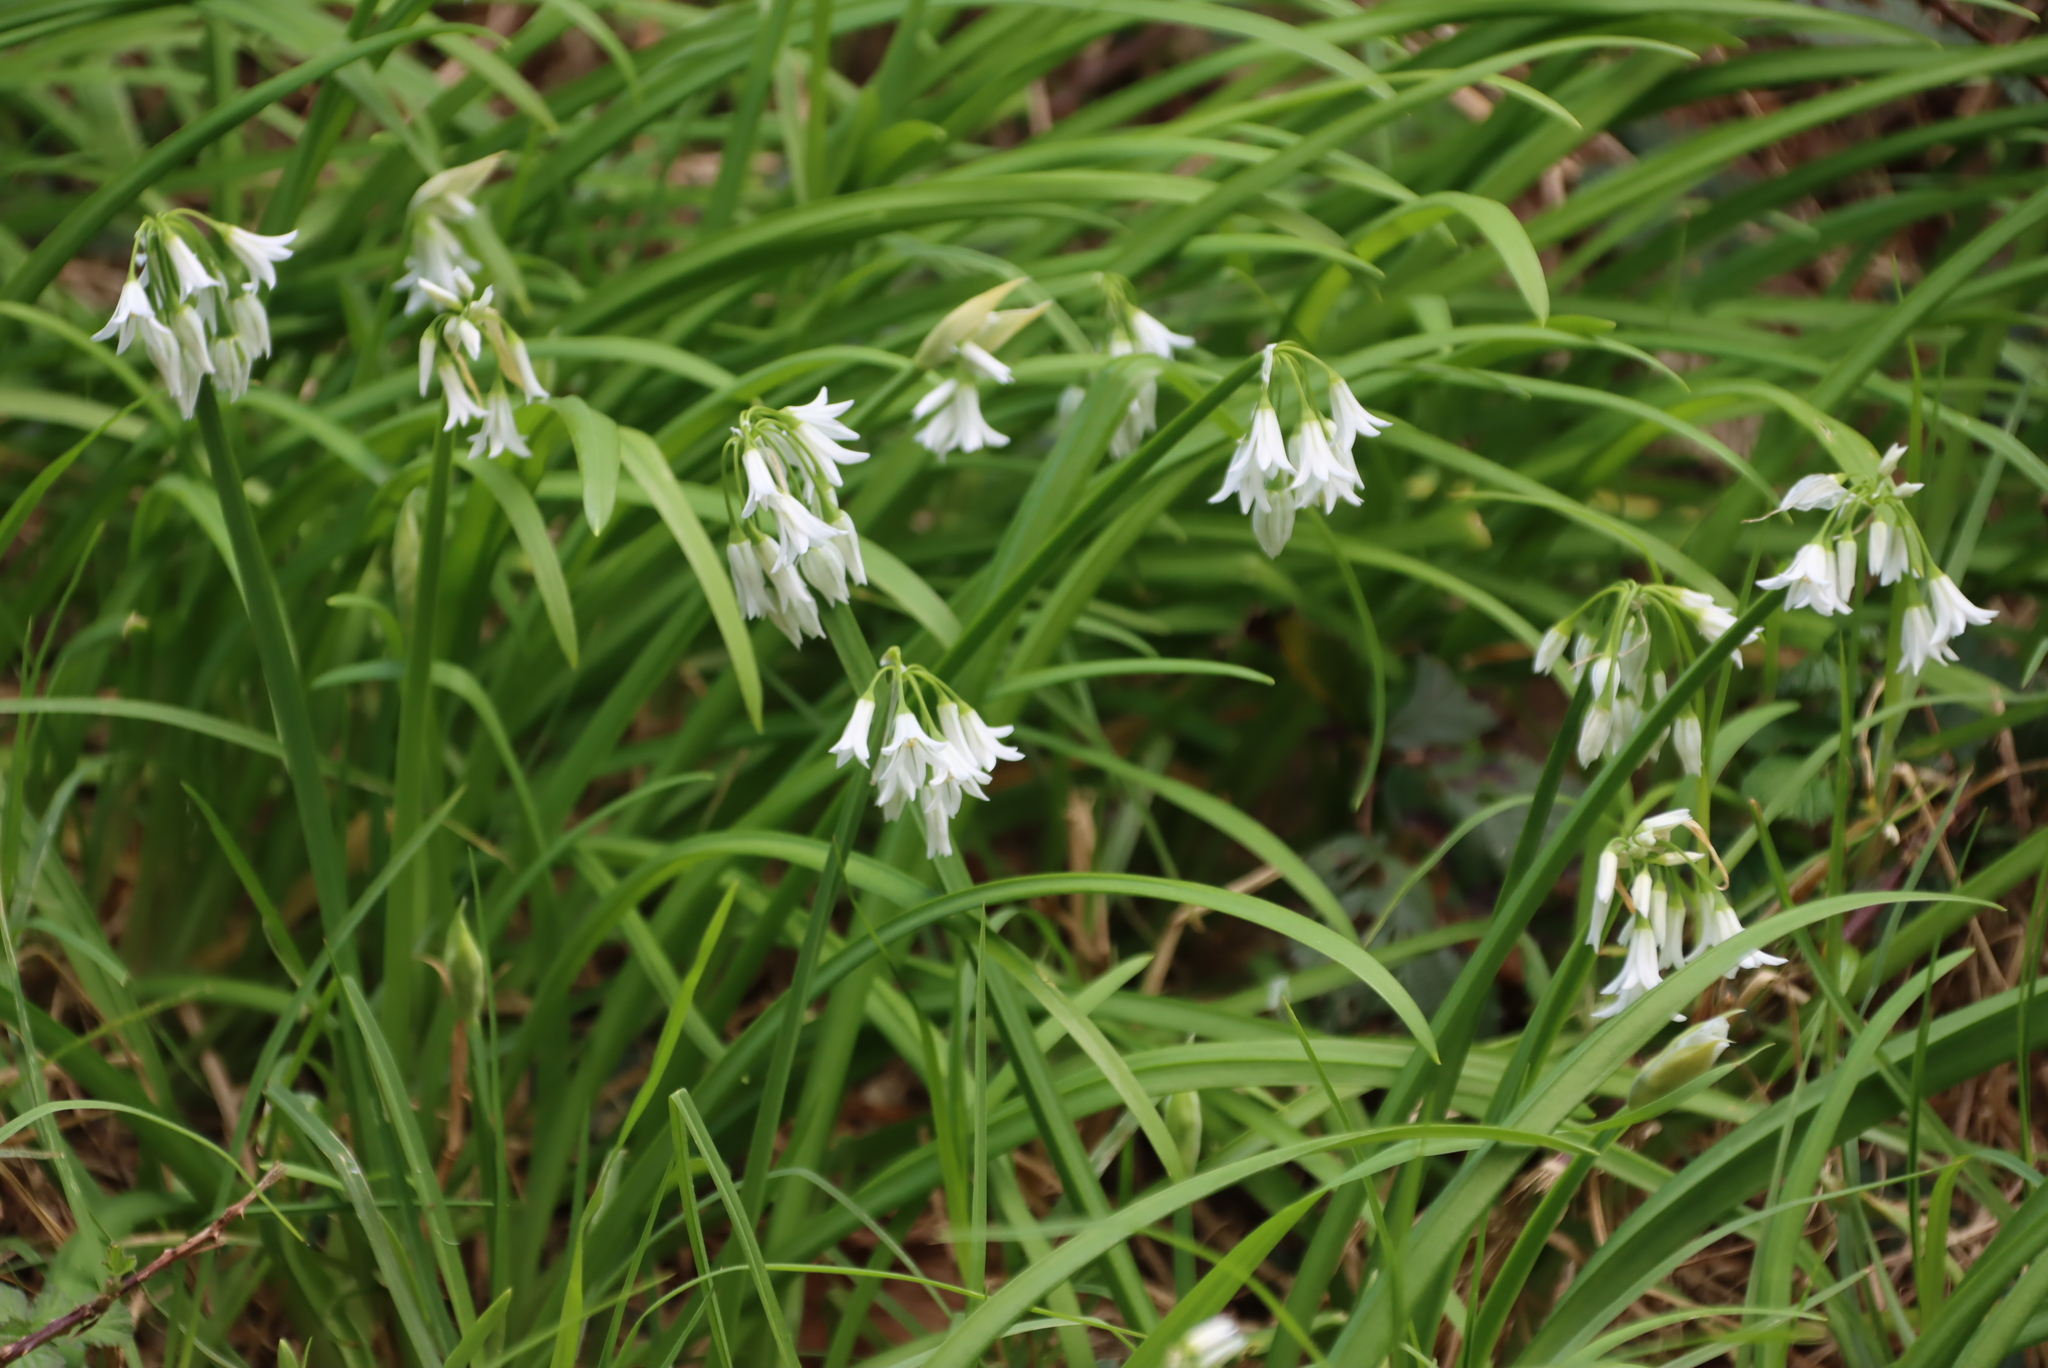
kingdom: Plantae
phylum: Tracheophyta
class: Liliopsida
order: Asparagales
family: Amaryllidaceae
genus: Allium
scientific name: Allium triquetrum
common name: Three-cornered garlic
